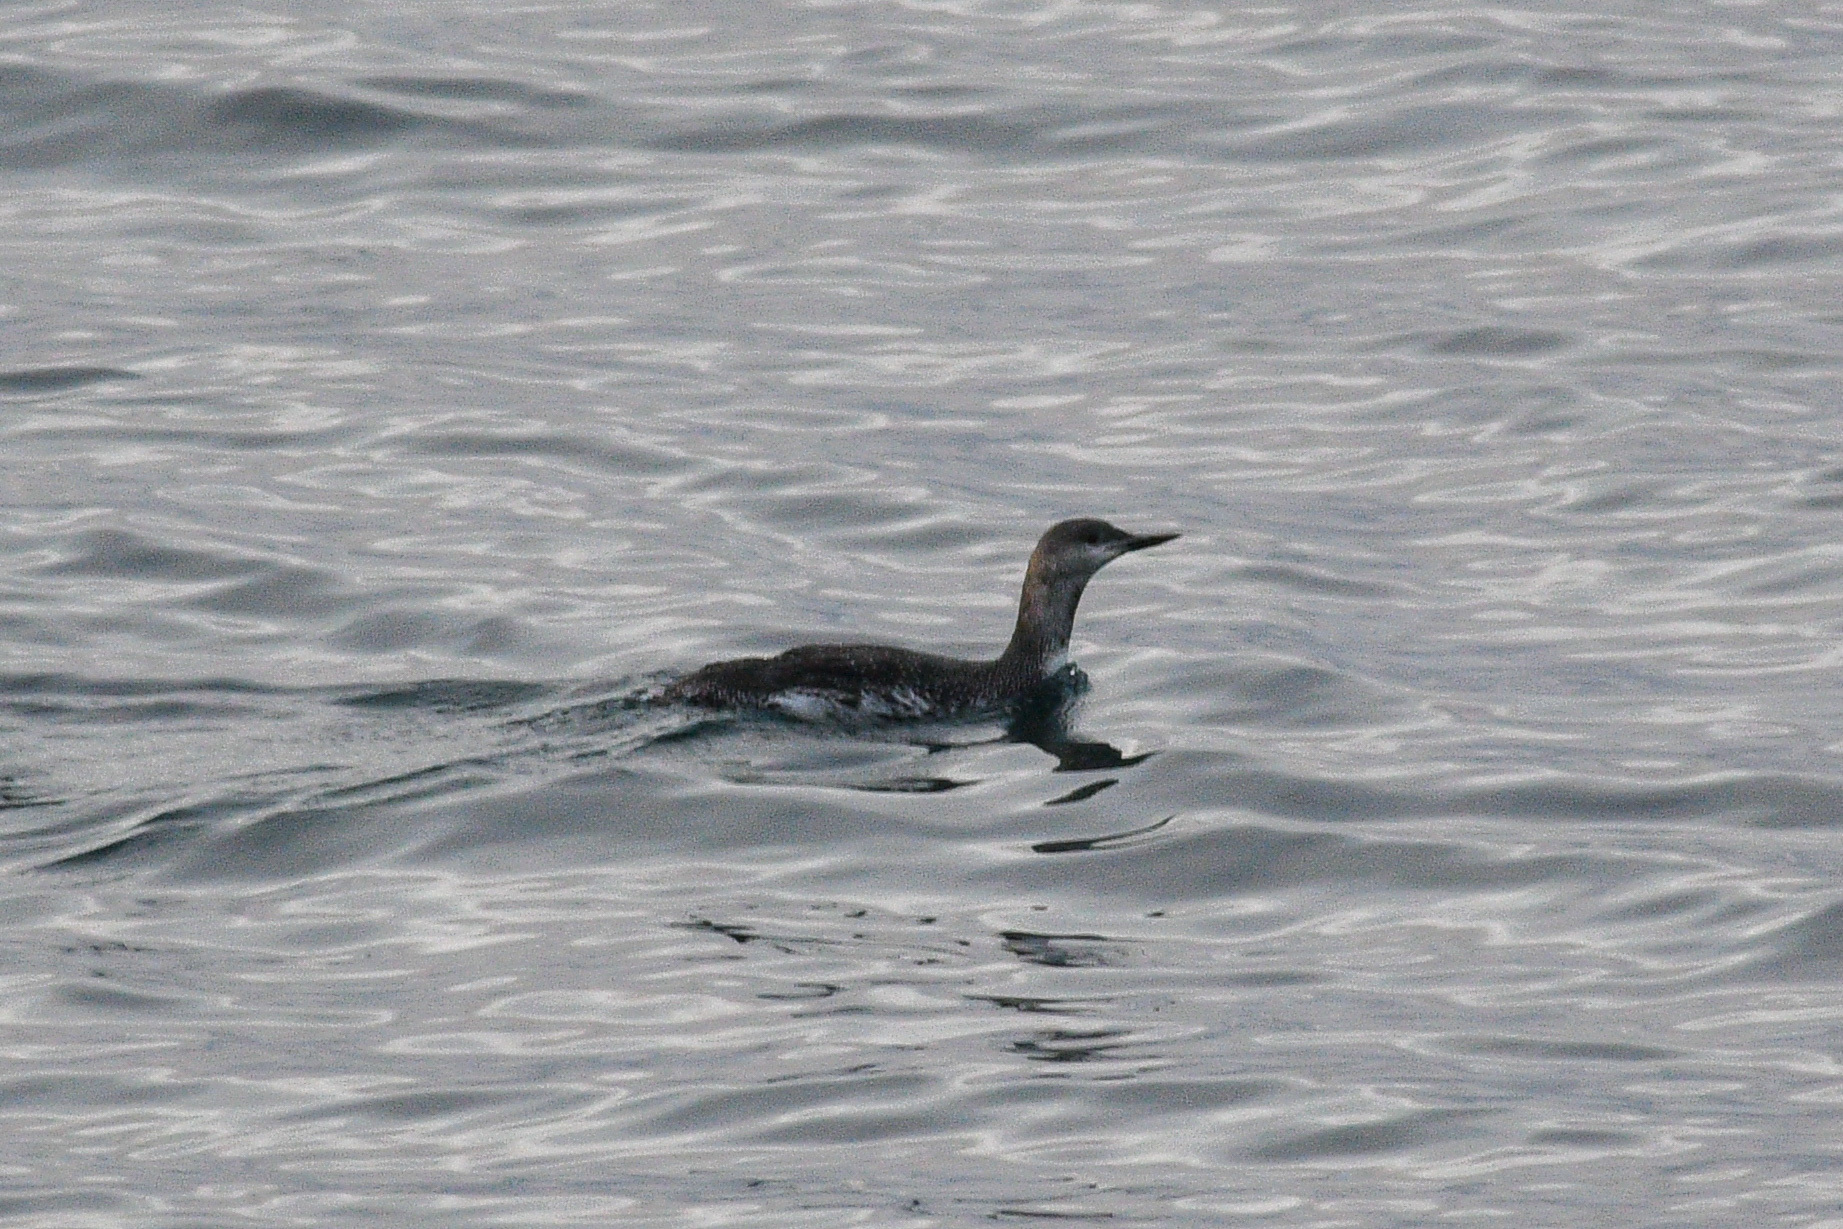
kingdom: Animalia
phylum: Chordata
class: Aves
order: Gaviiformes
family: Gaviidae
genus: Gavia
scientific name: Gavia stellata
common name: Red-throated loon
